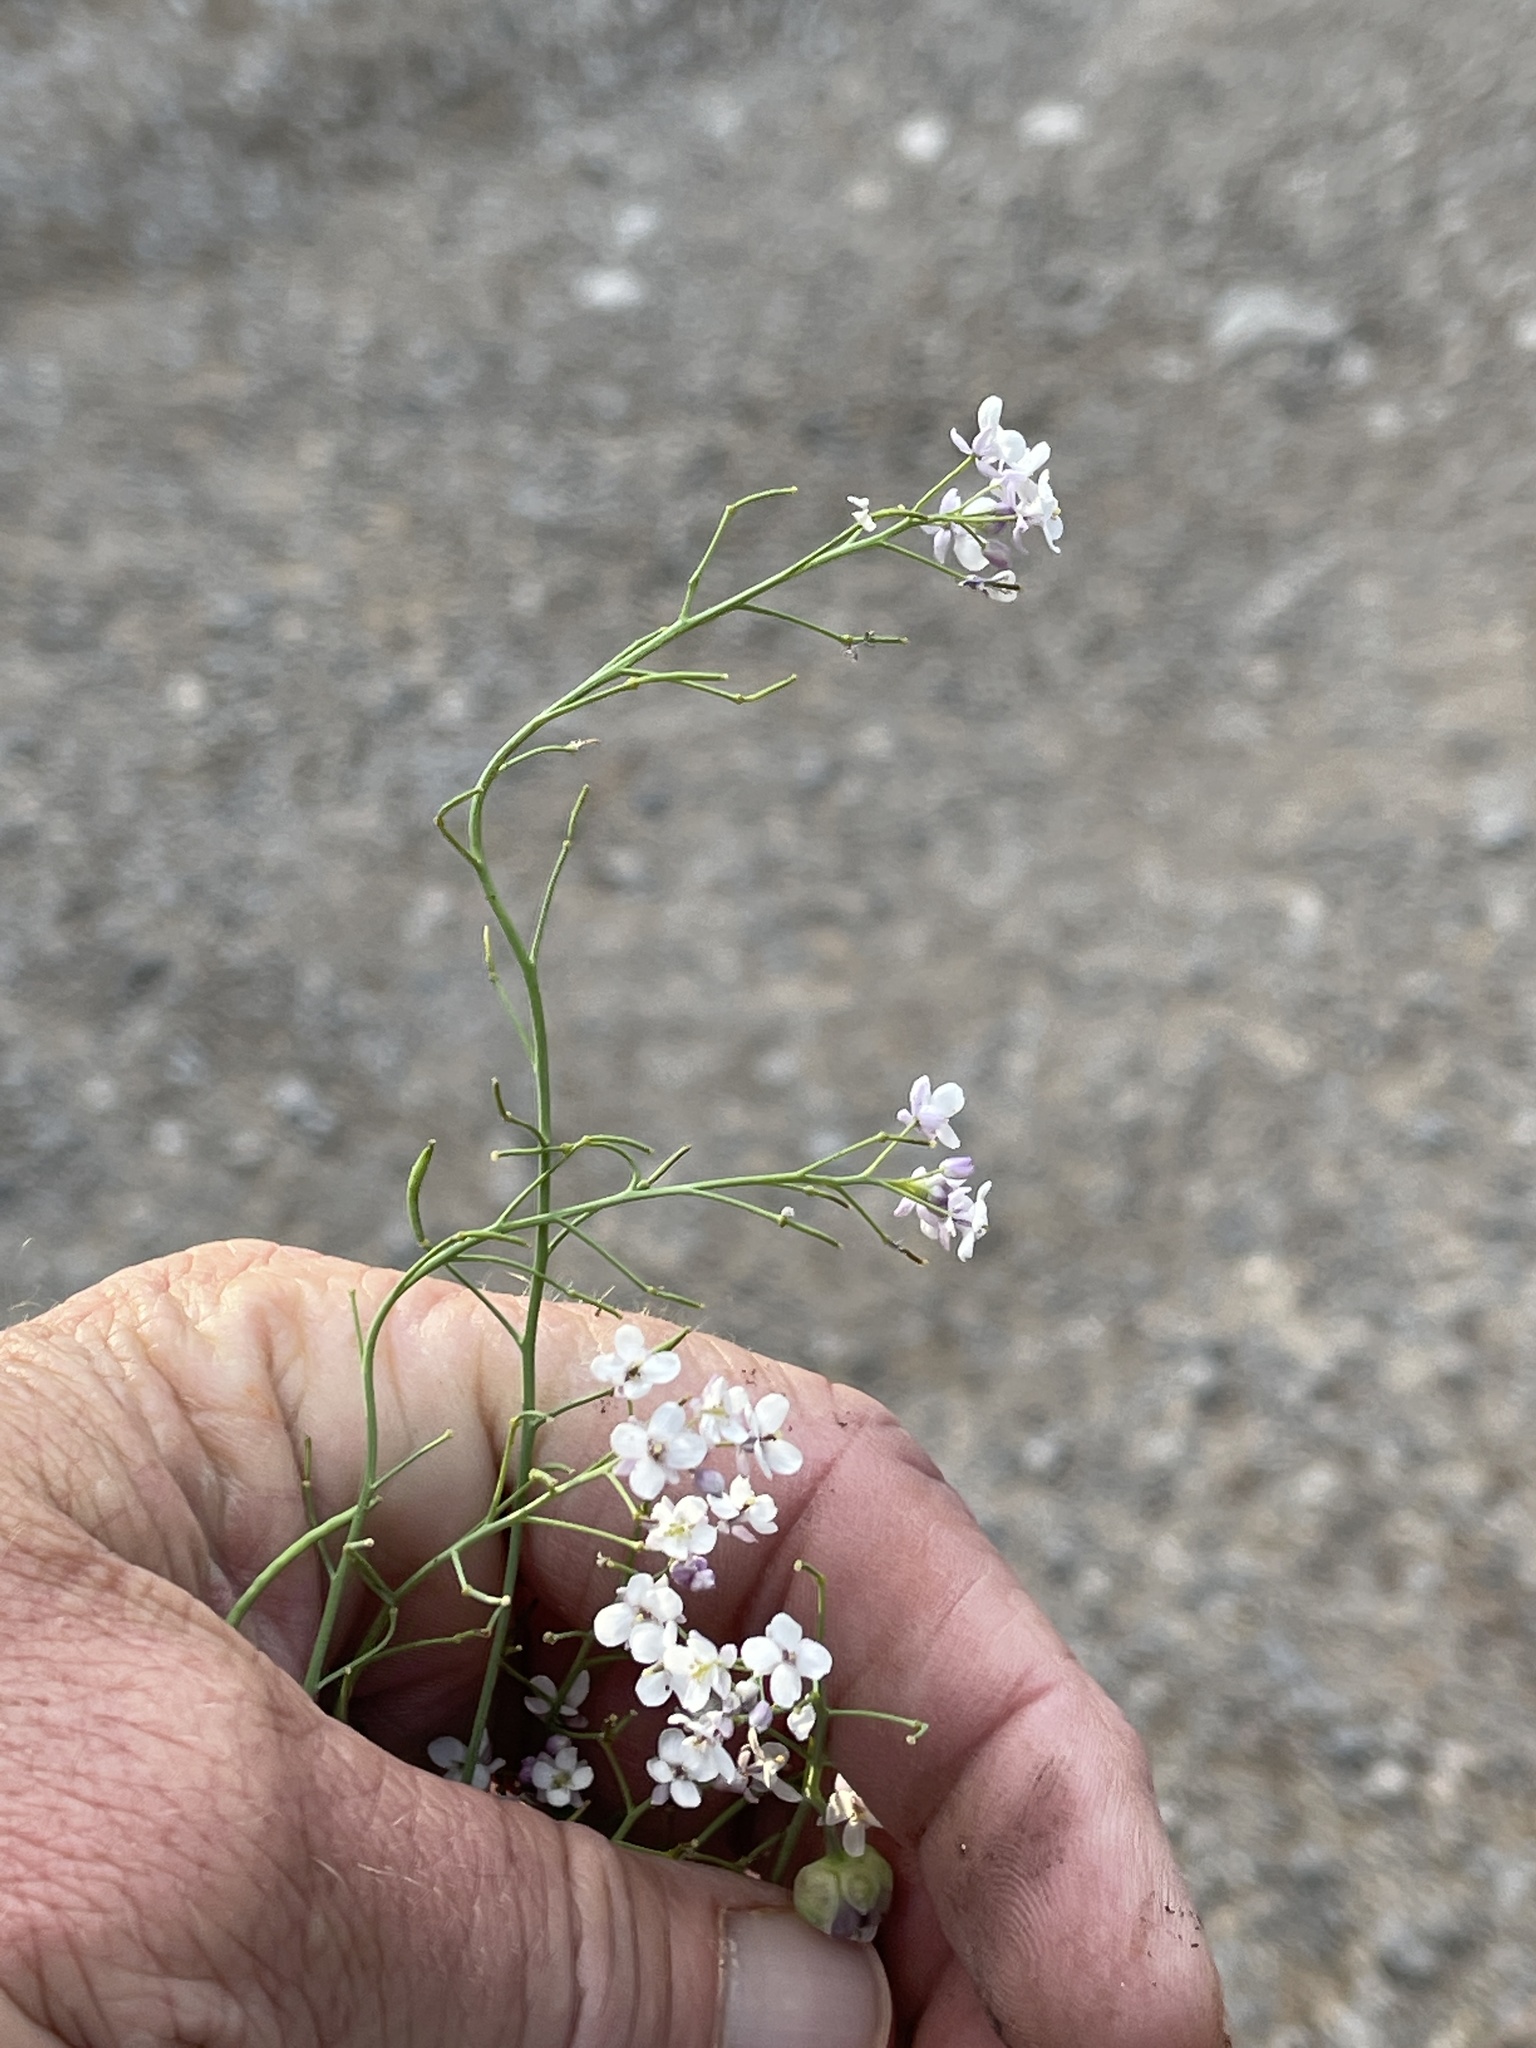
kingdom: Plantae
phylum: Tracheophyta
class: Magnoliopsida
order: Brassicales
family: Brassicaceae
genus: Mostacillastrum
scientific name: Mostacillastrum subauriculatum
